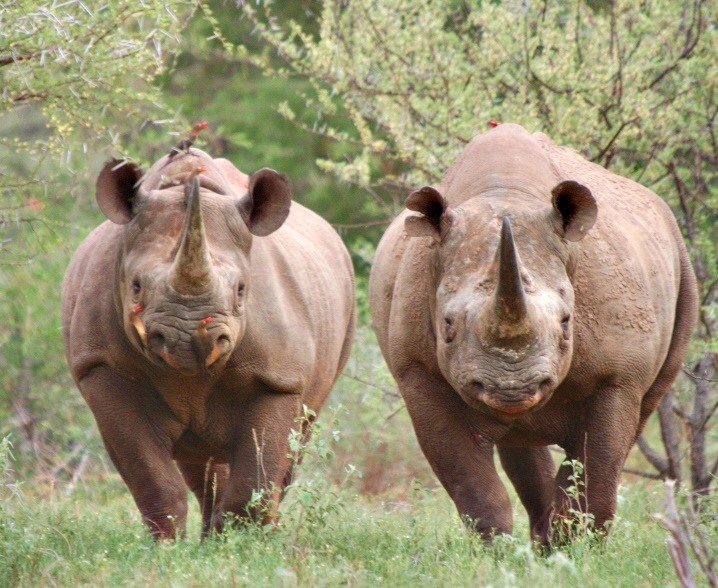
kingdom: Animalia
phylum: Chordata
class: Mammalia
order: Perissodactyla
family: Rhinocerotidae
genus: Diceros
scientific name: Diceros bicornis
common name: Black rhinoceros
